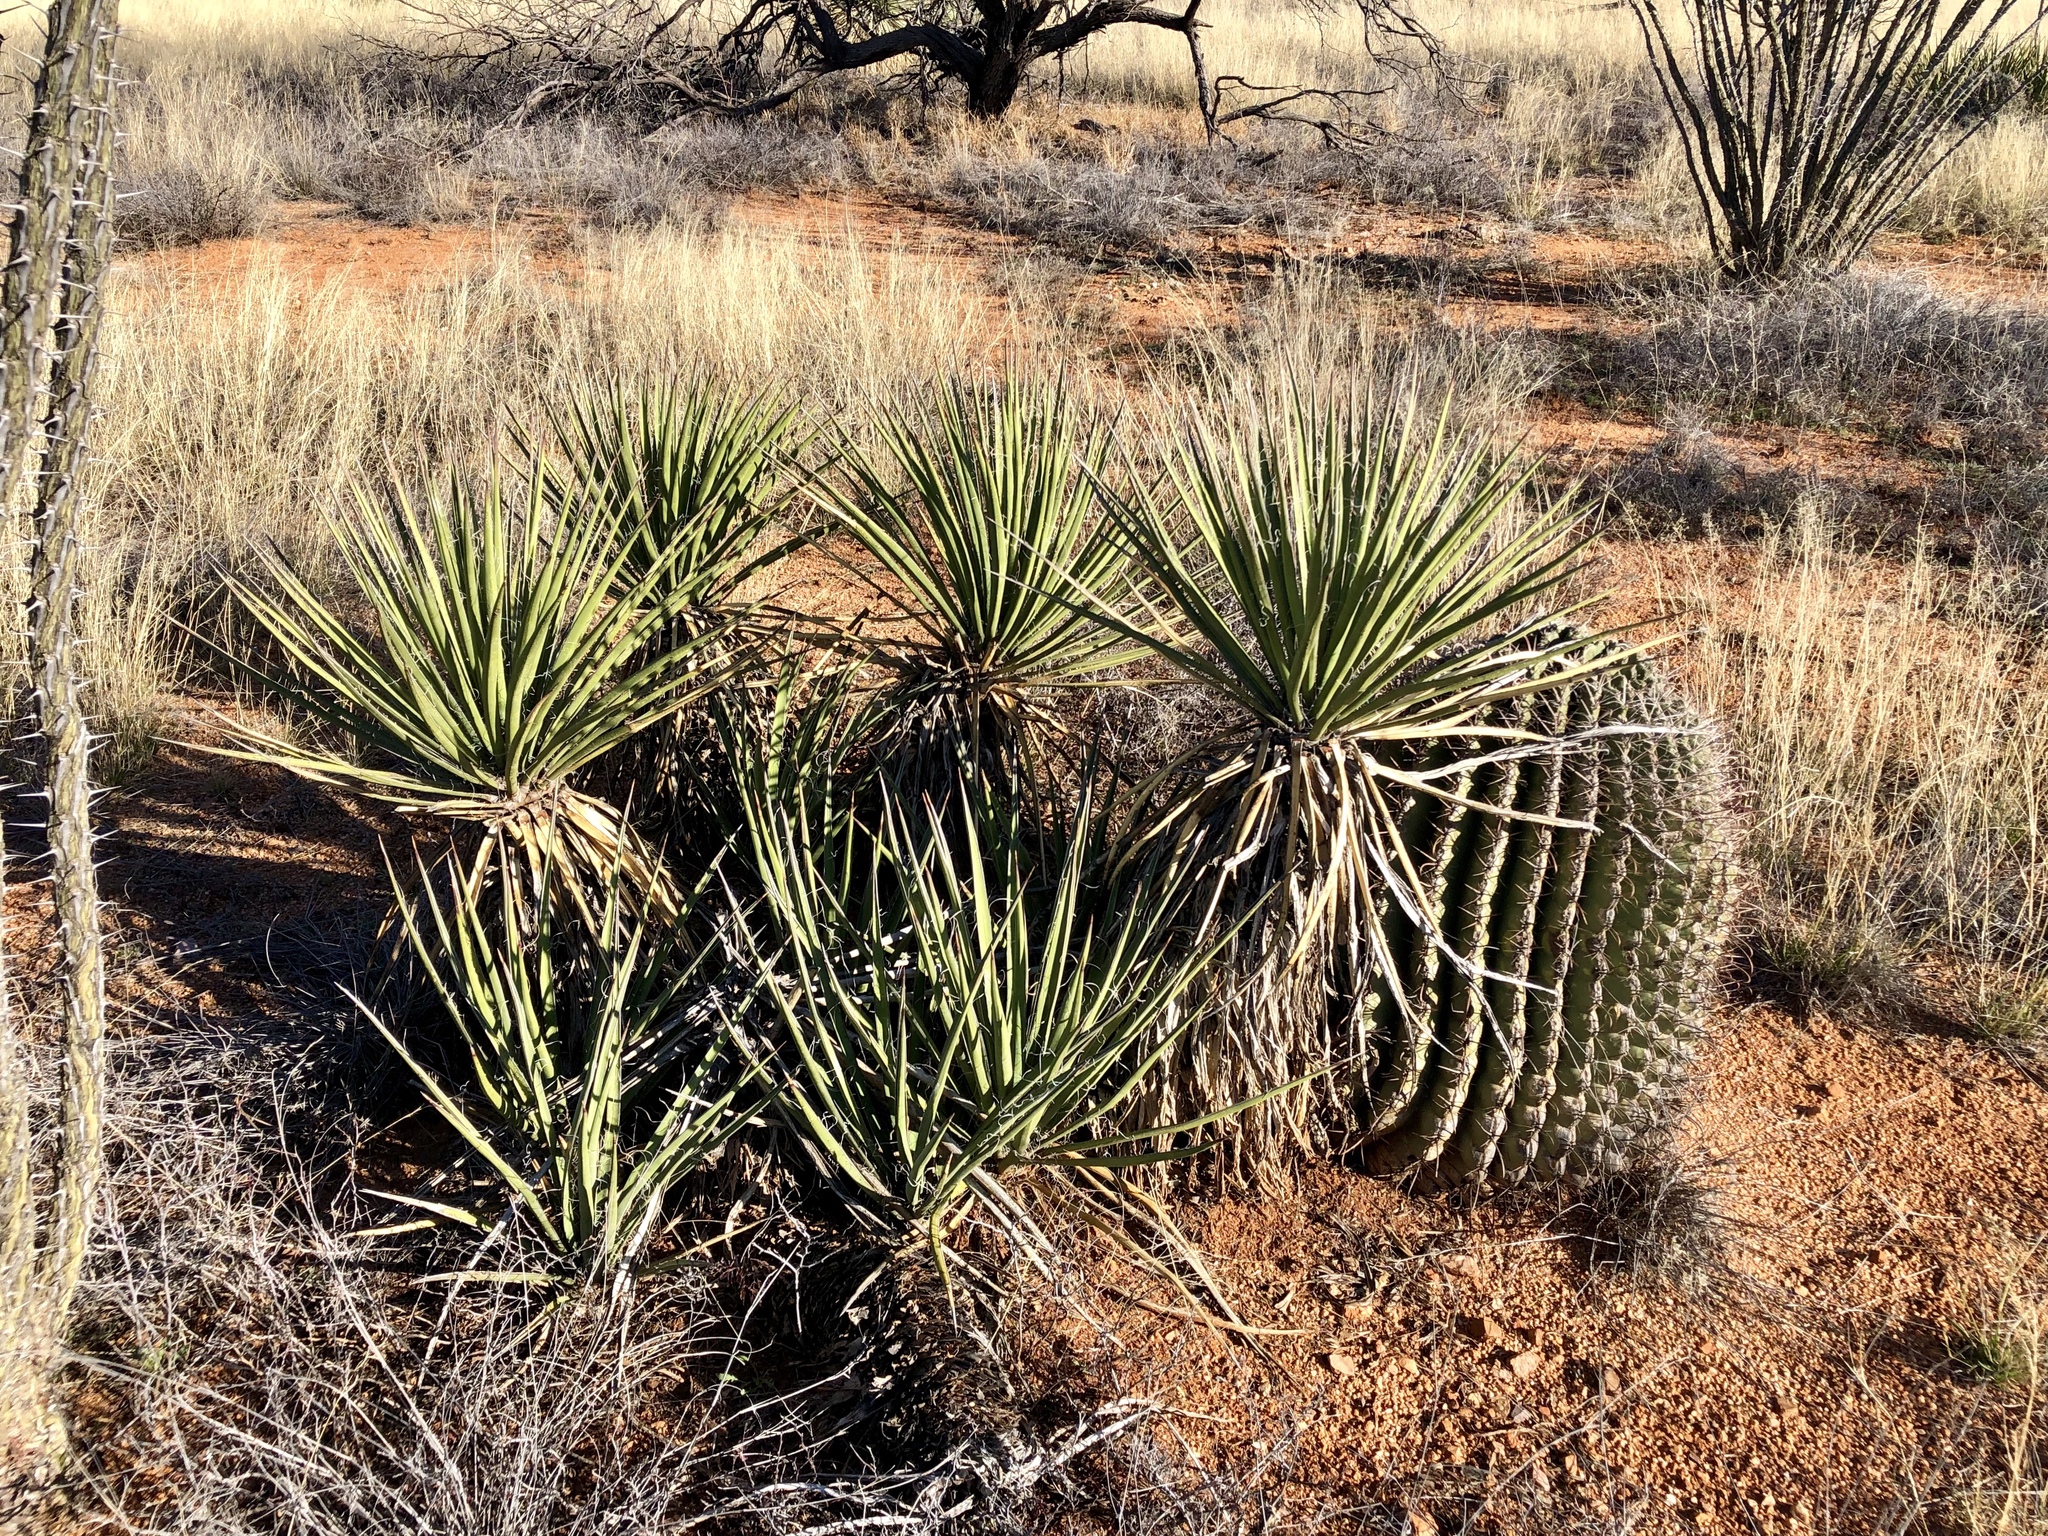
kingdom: Plantae
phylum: Tracheophyta
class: Liliopsida
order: Asparagales
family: Asparagaceae
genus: Yucca
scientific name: Yucca baccata
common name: Banana yucca
